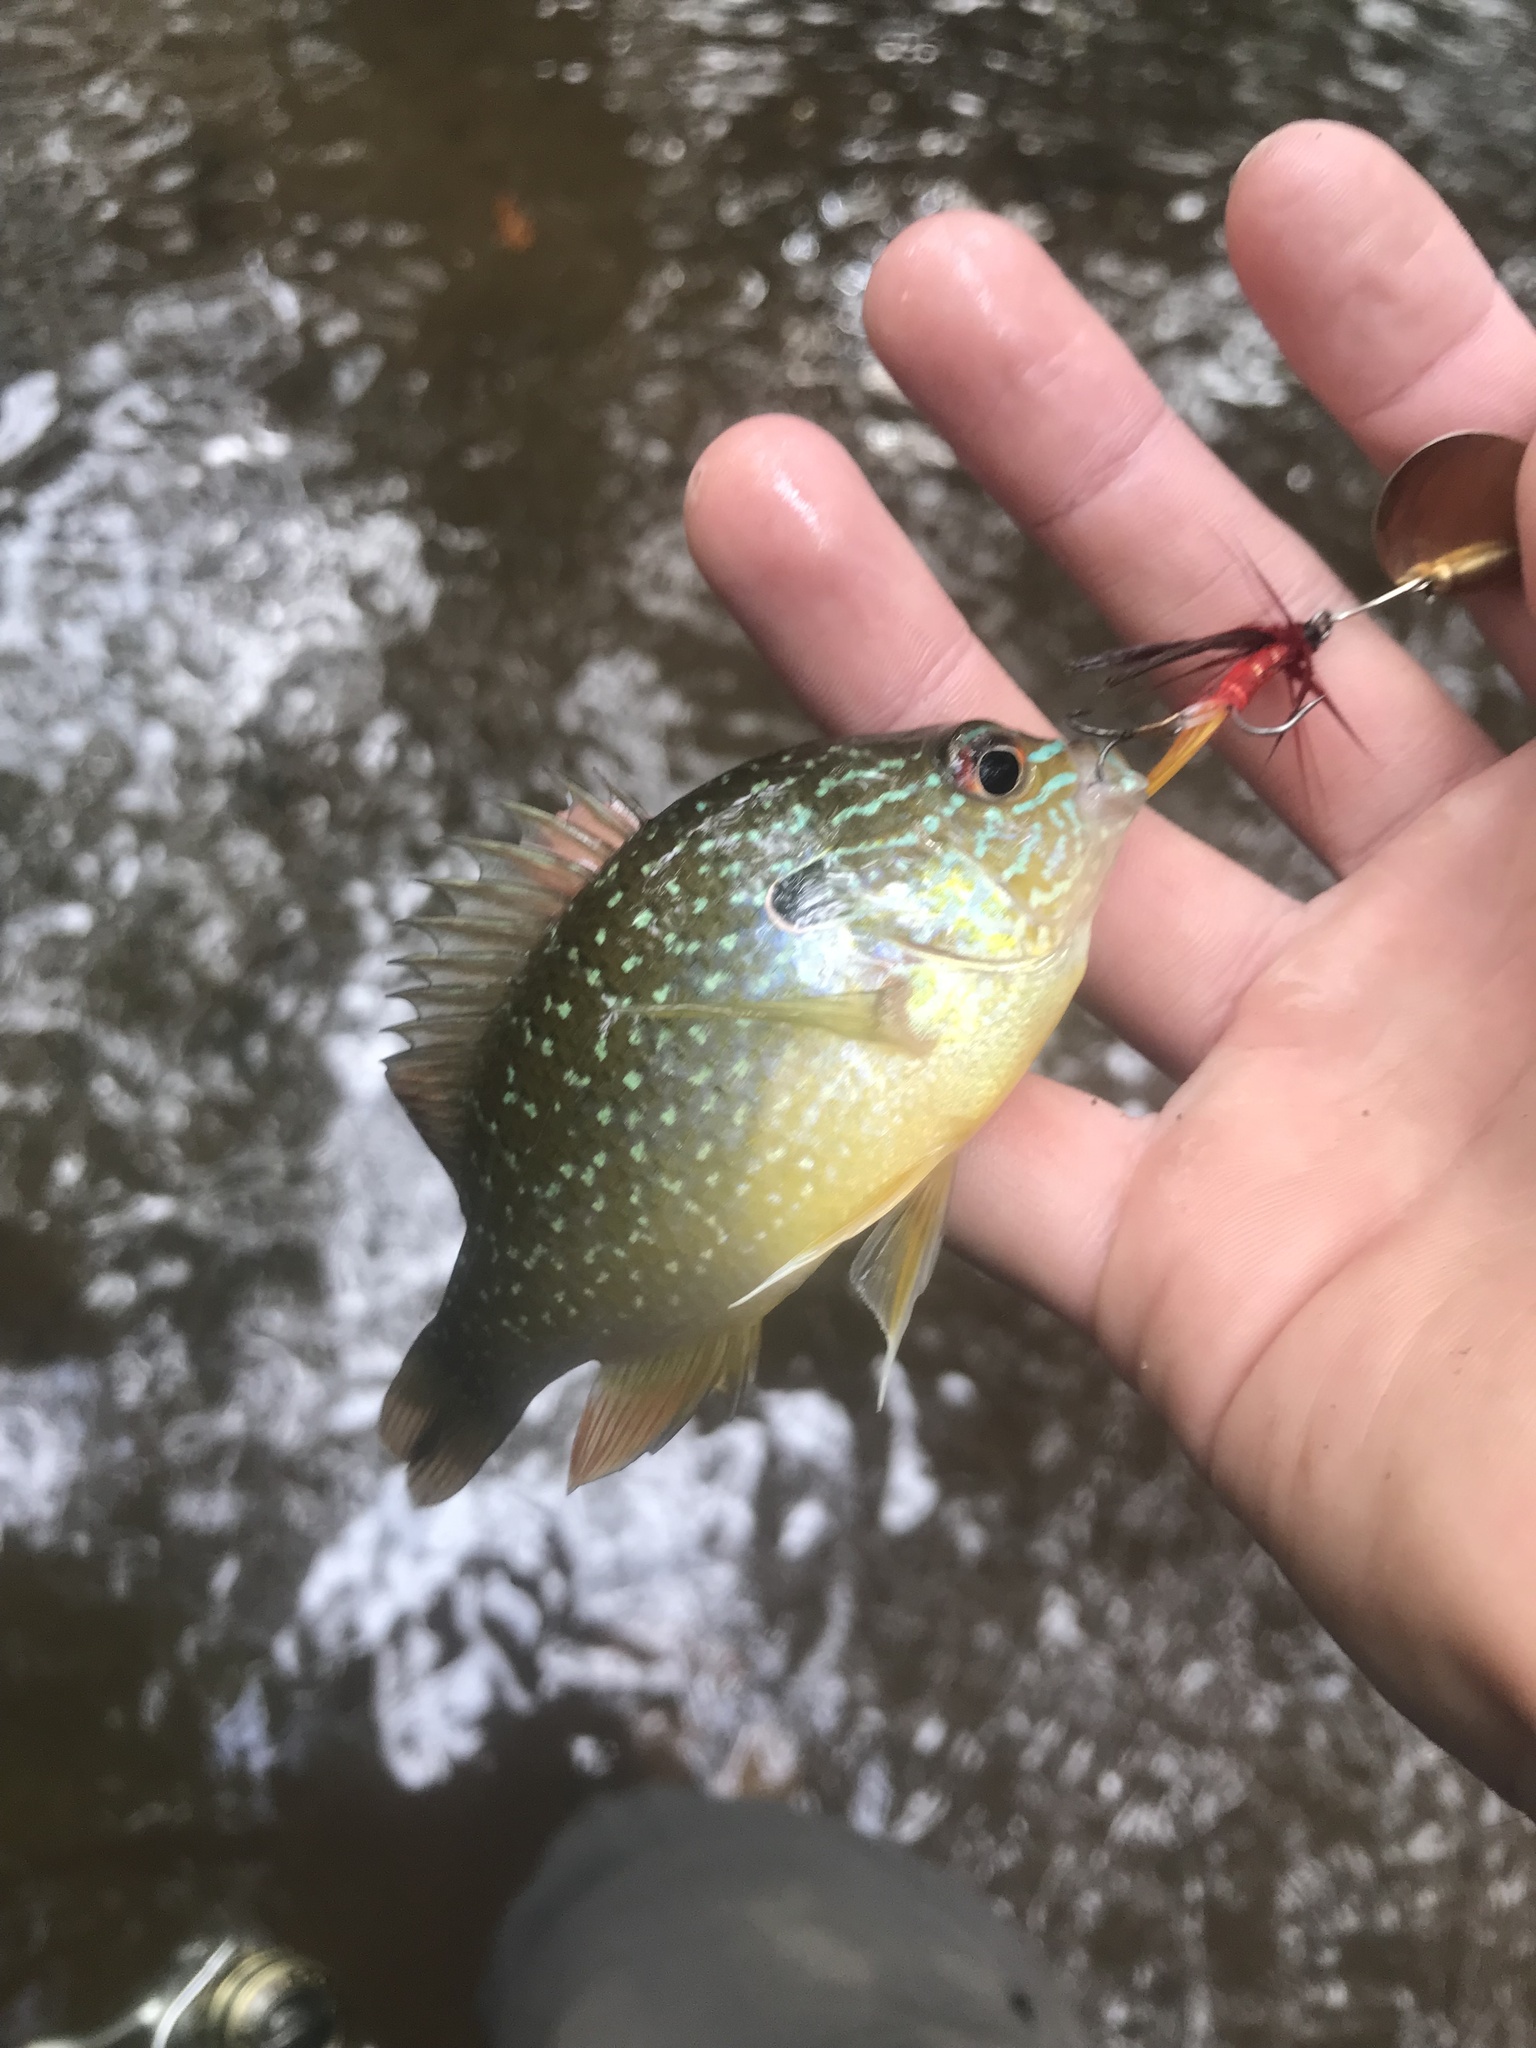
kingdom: Animalia
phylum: Chordata
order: Perciformes
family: Centrarchidae
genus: Lepomis
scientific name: Lepomis megalotis
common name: Longear sunfish
